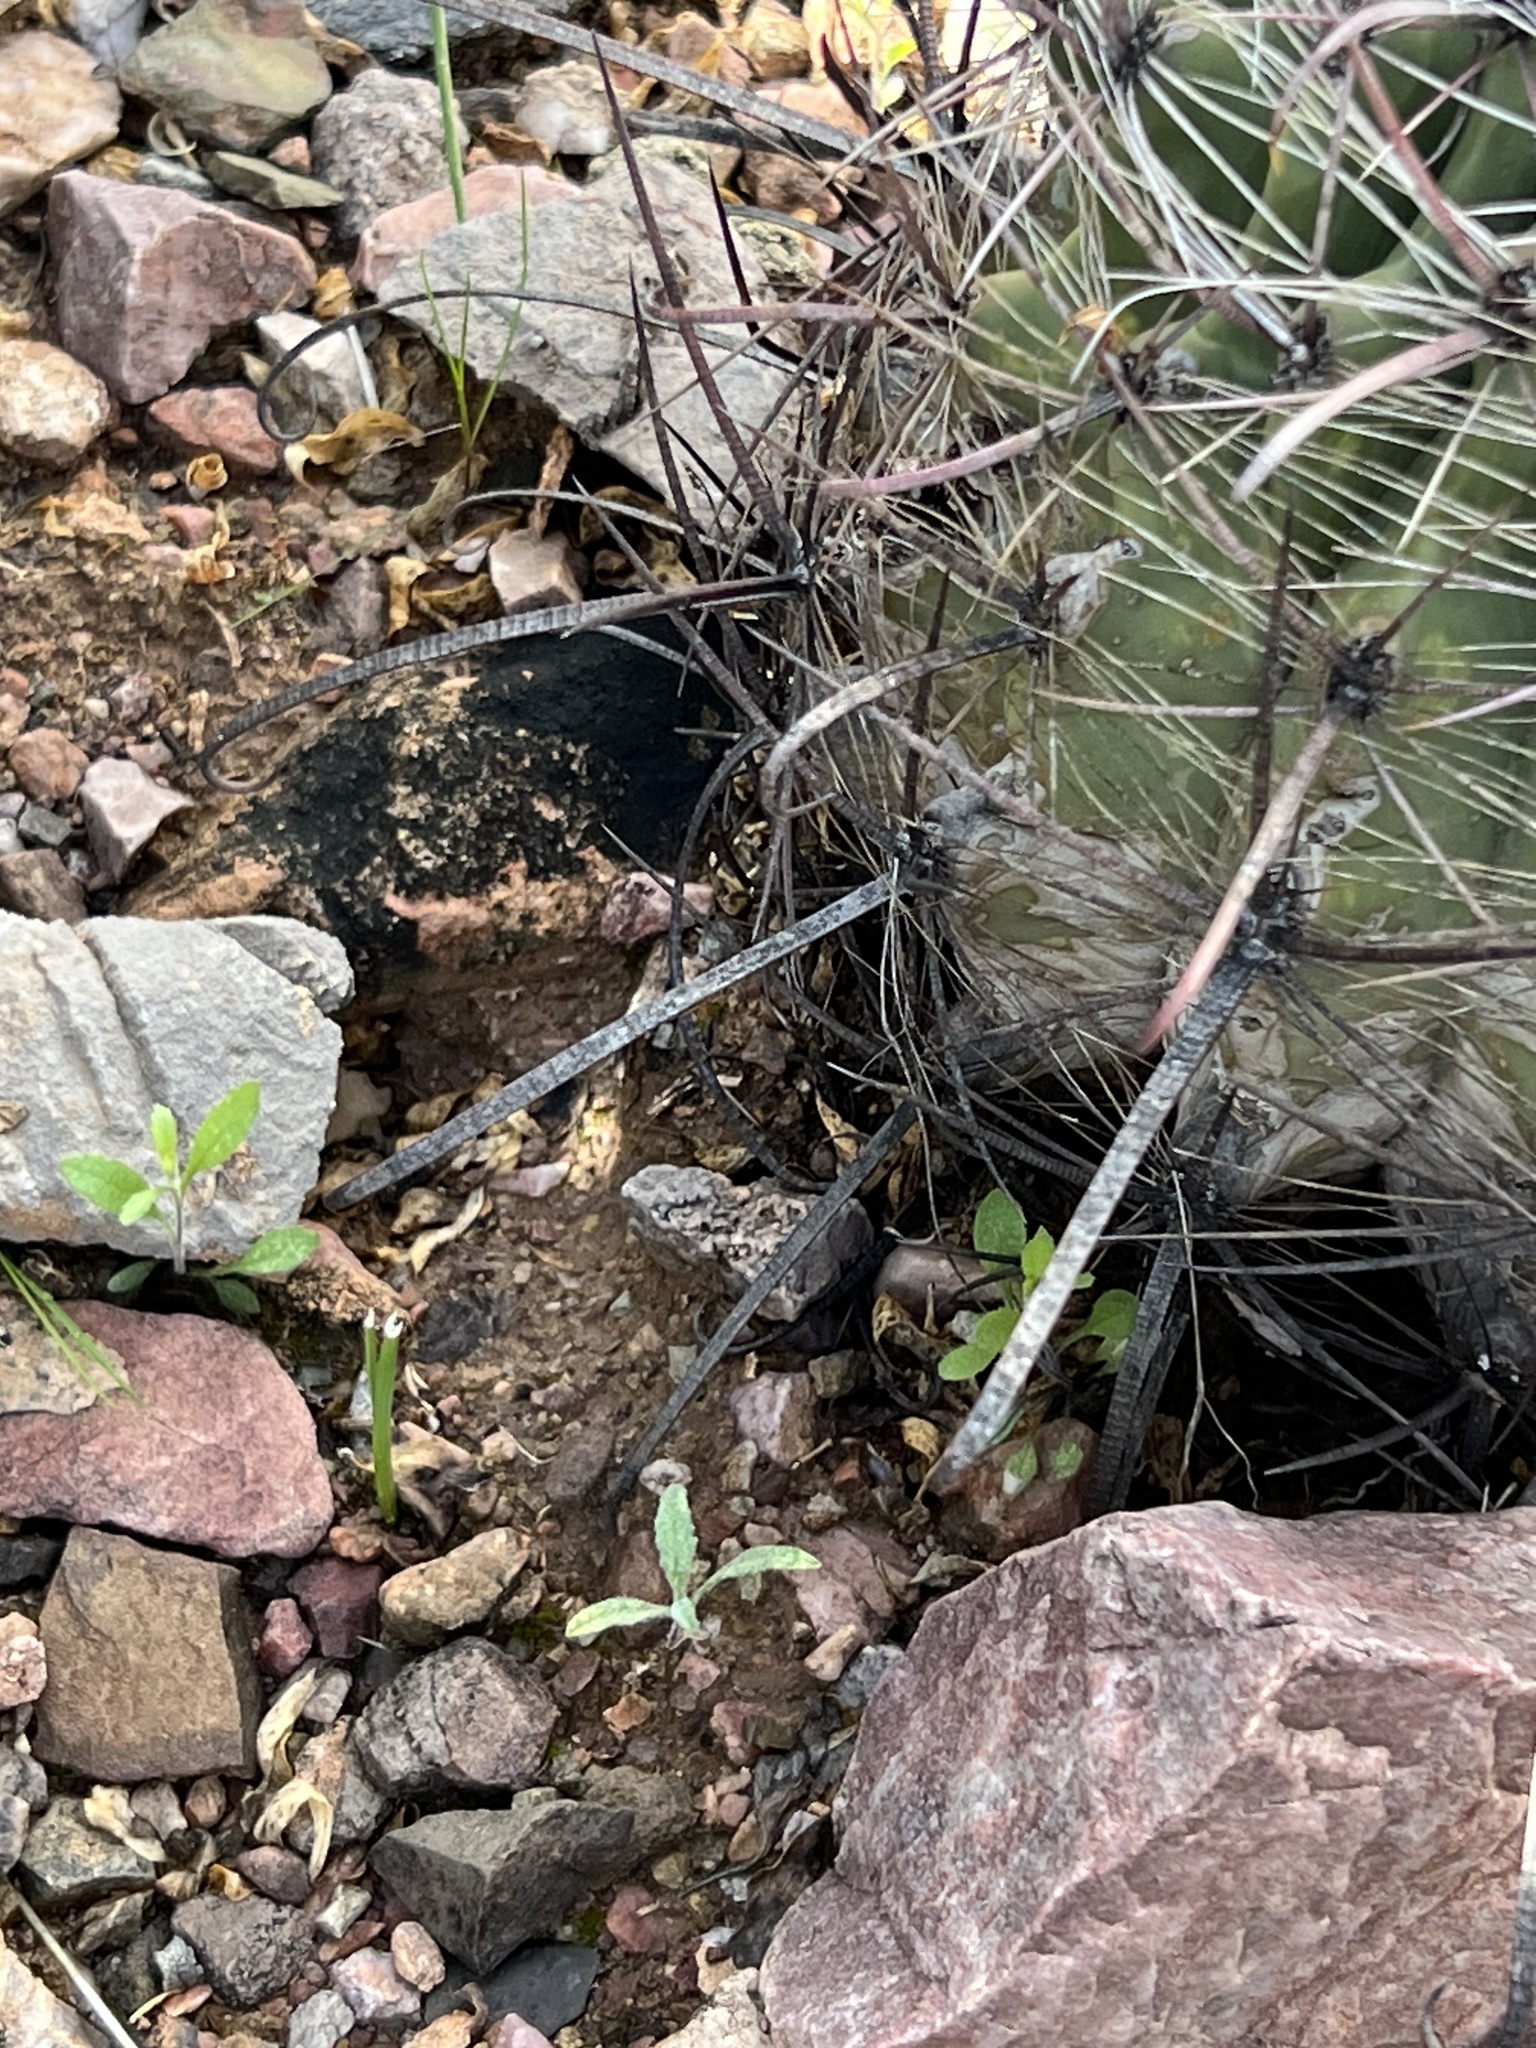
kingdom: Plantae
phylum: Tracheophyta
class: Magnoliopsida
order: Caryophyllales
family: Cactaceae
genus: Ferocactus
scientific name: Ferocactus wislizeni
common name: Candy barrel cactus
